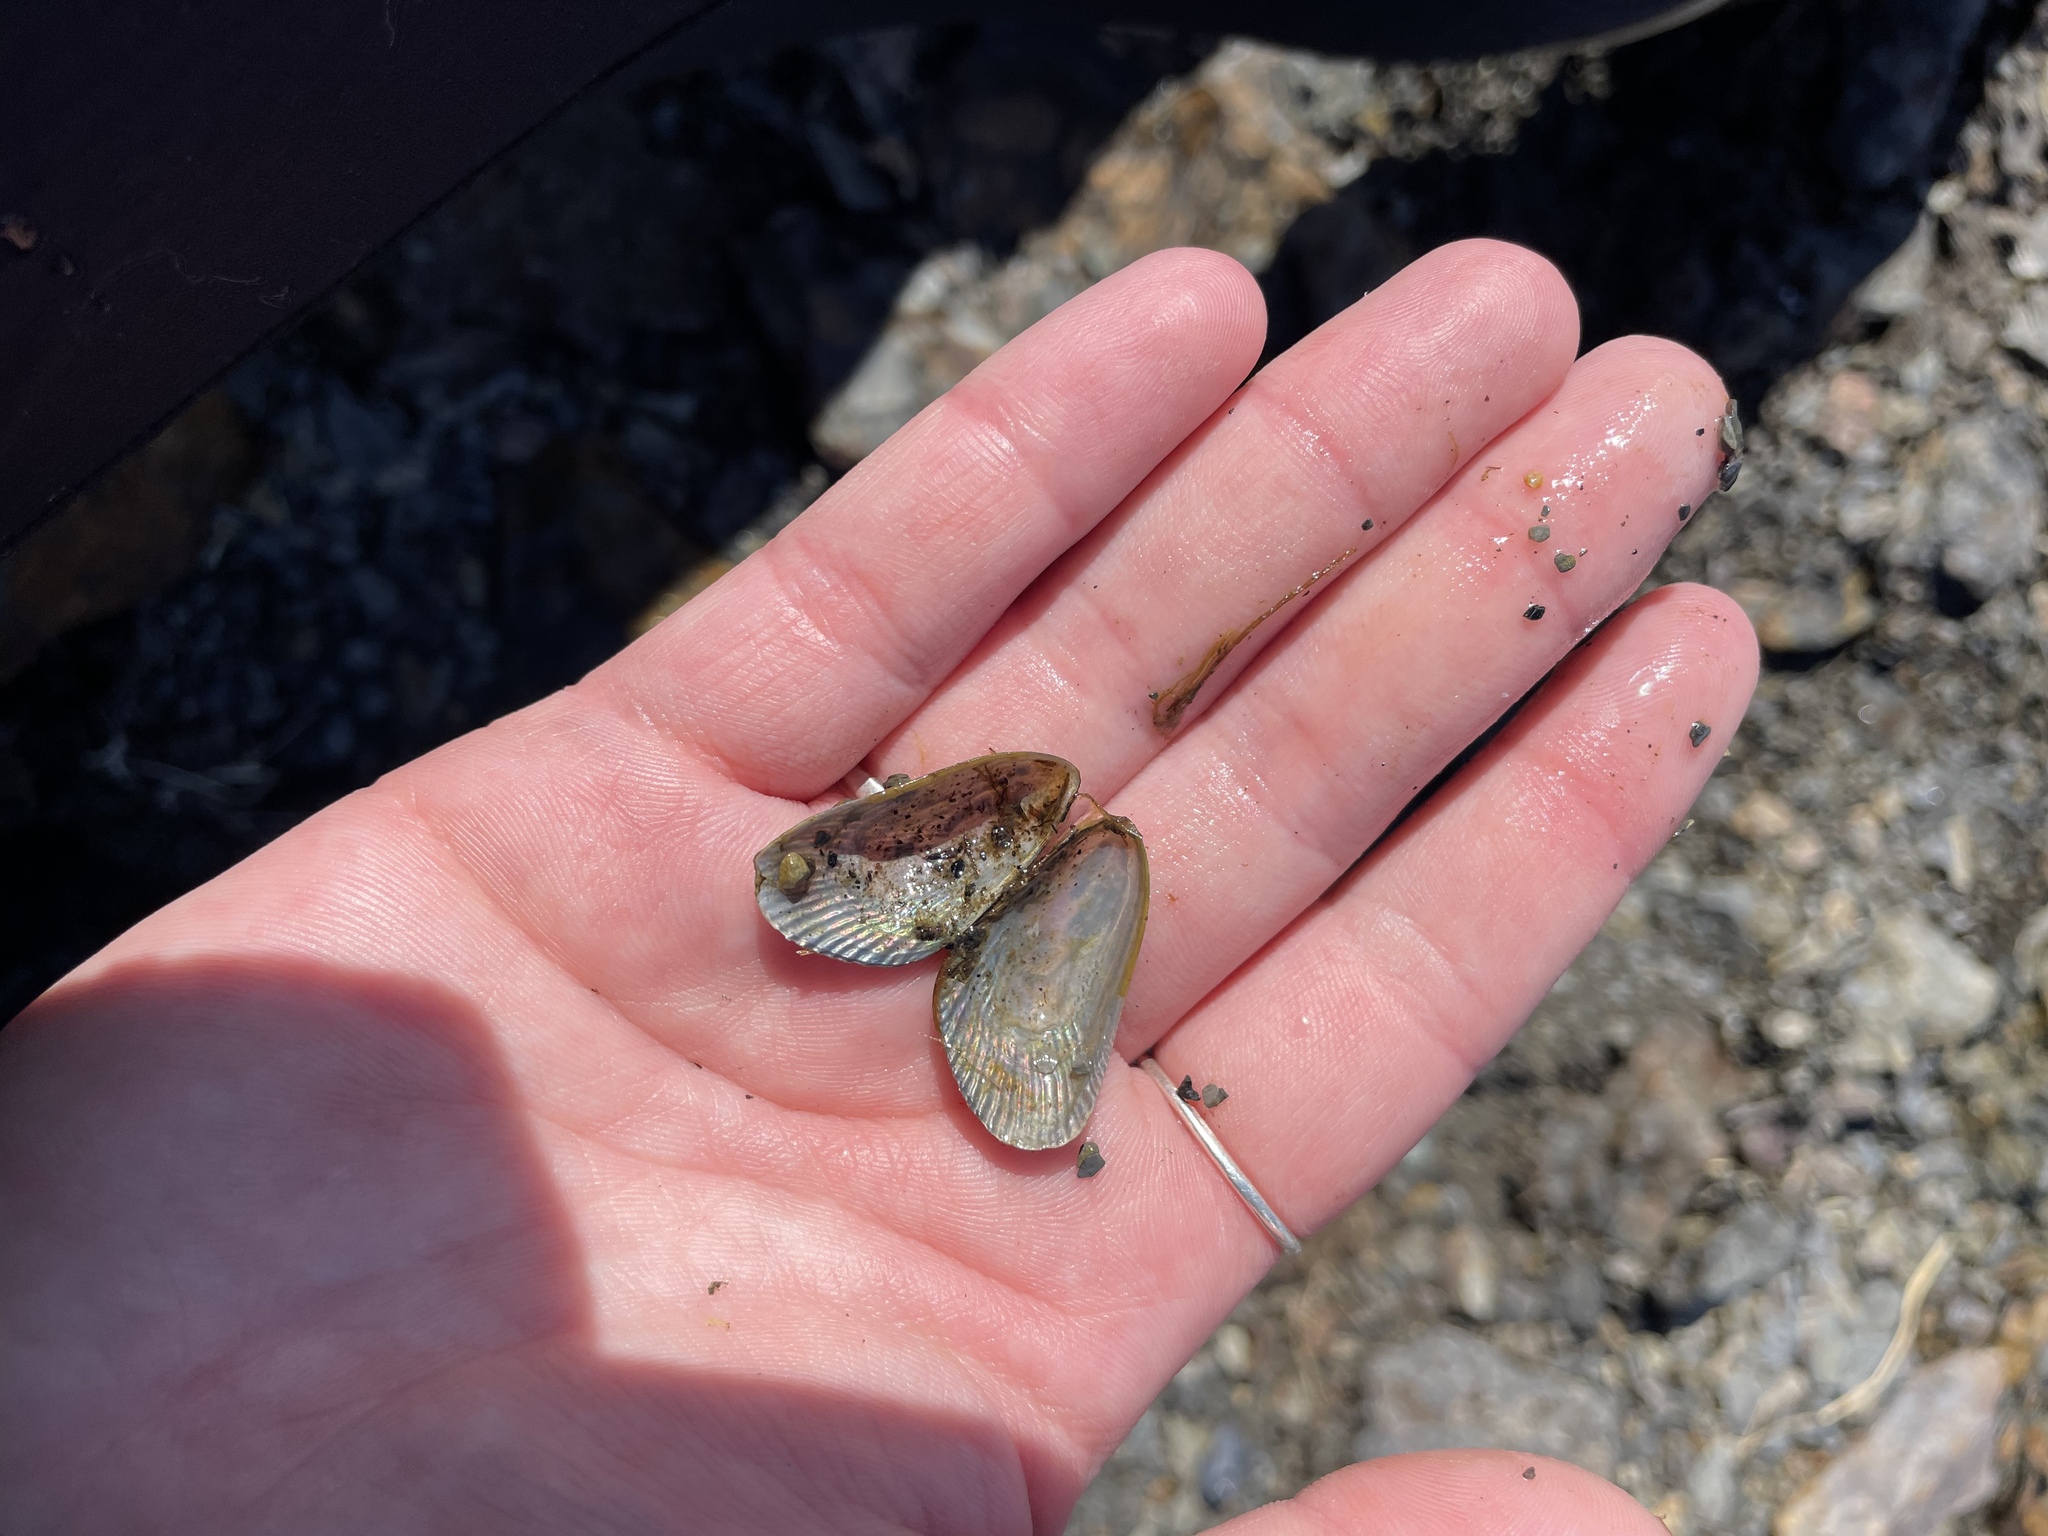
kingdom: Animalia
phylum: Mollusca
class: Bivalvia
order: Mytilida
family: Mytilidae
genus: Geukensia
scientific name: Geukensia demissa
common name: Ribbed mussel
